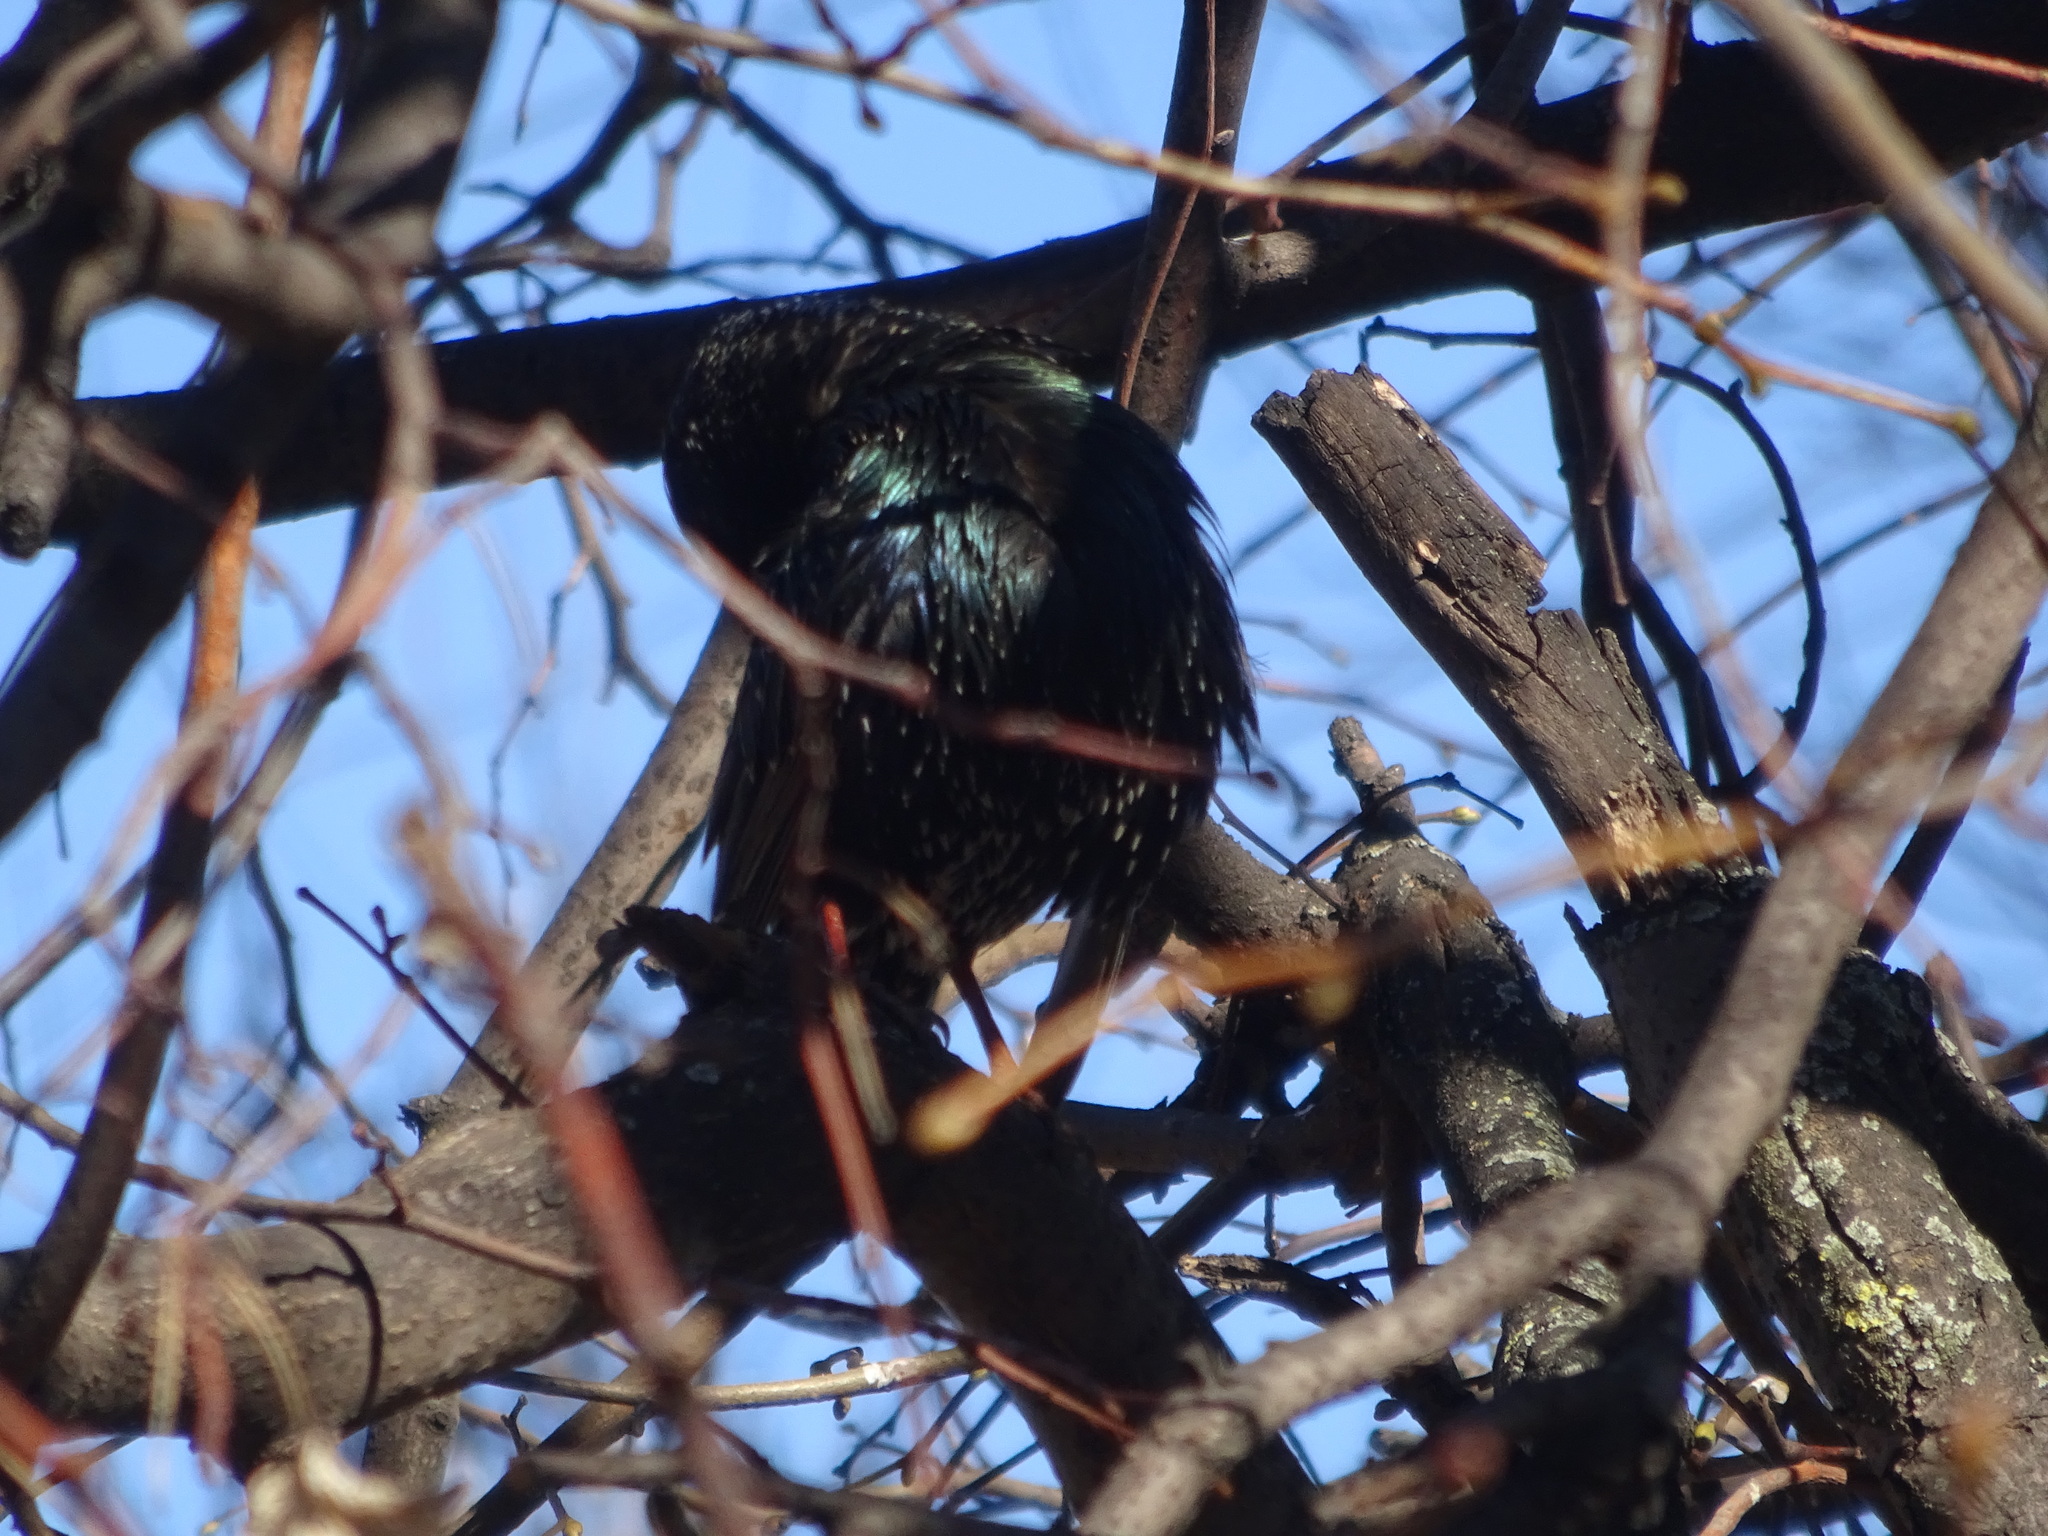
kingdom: Animalia
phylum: Chordata
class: Aves
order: Passeriformes
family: Sturnidae
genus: Sturnus
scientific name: Sturnus vulgaris
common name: Common starling
